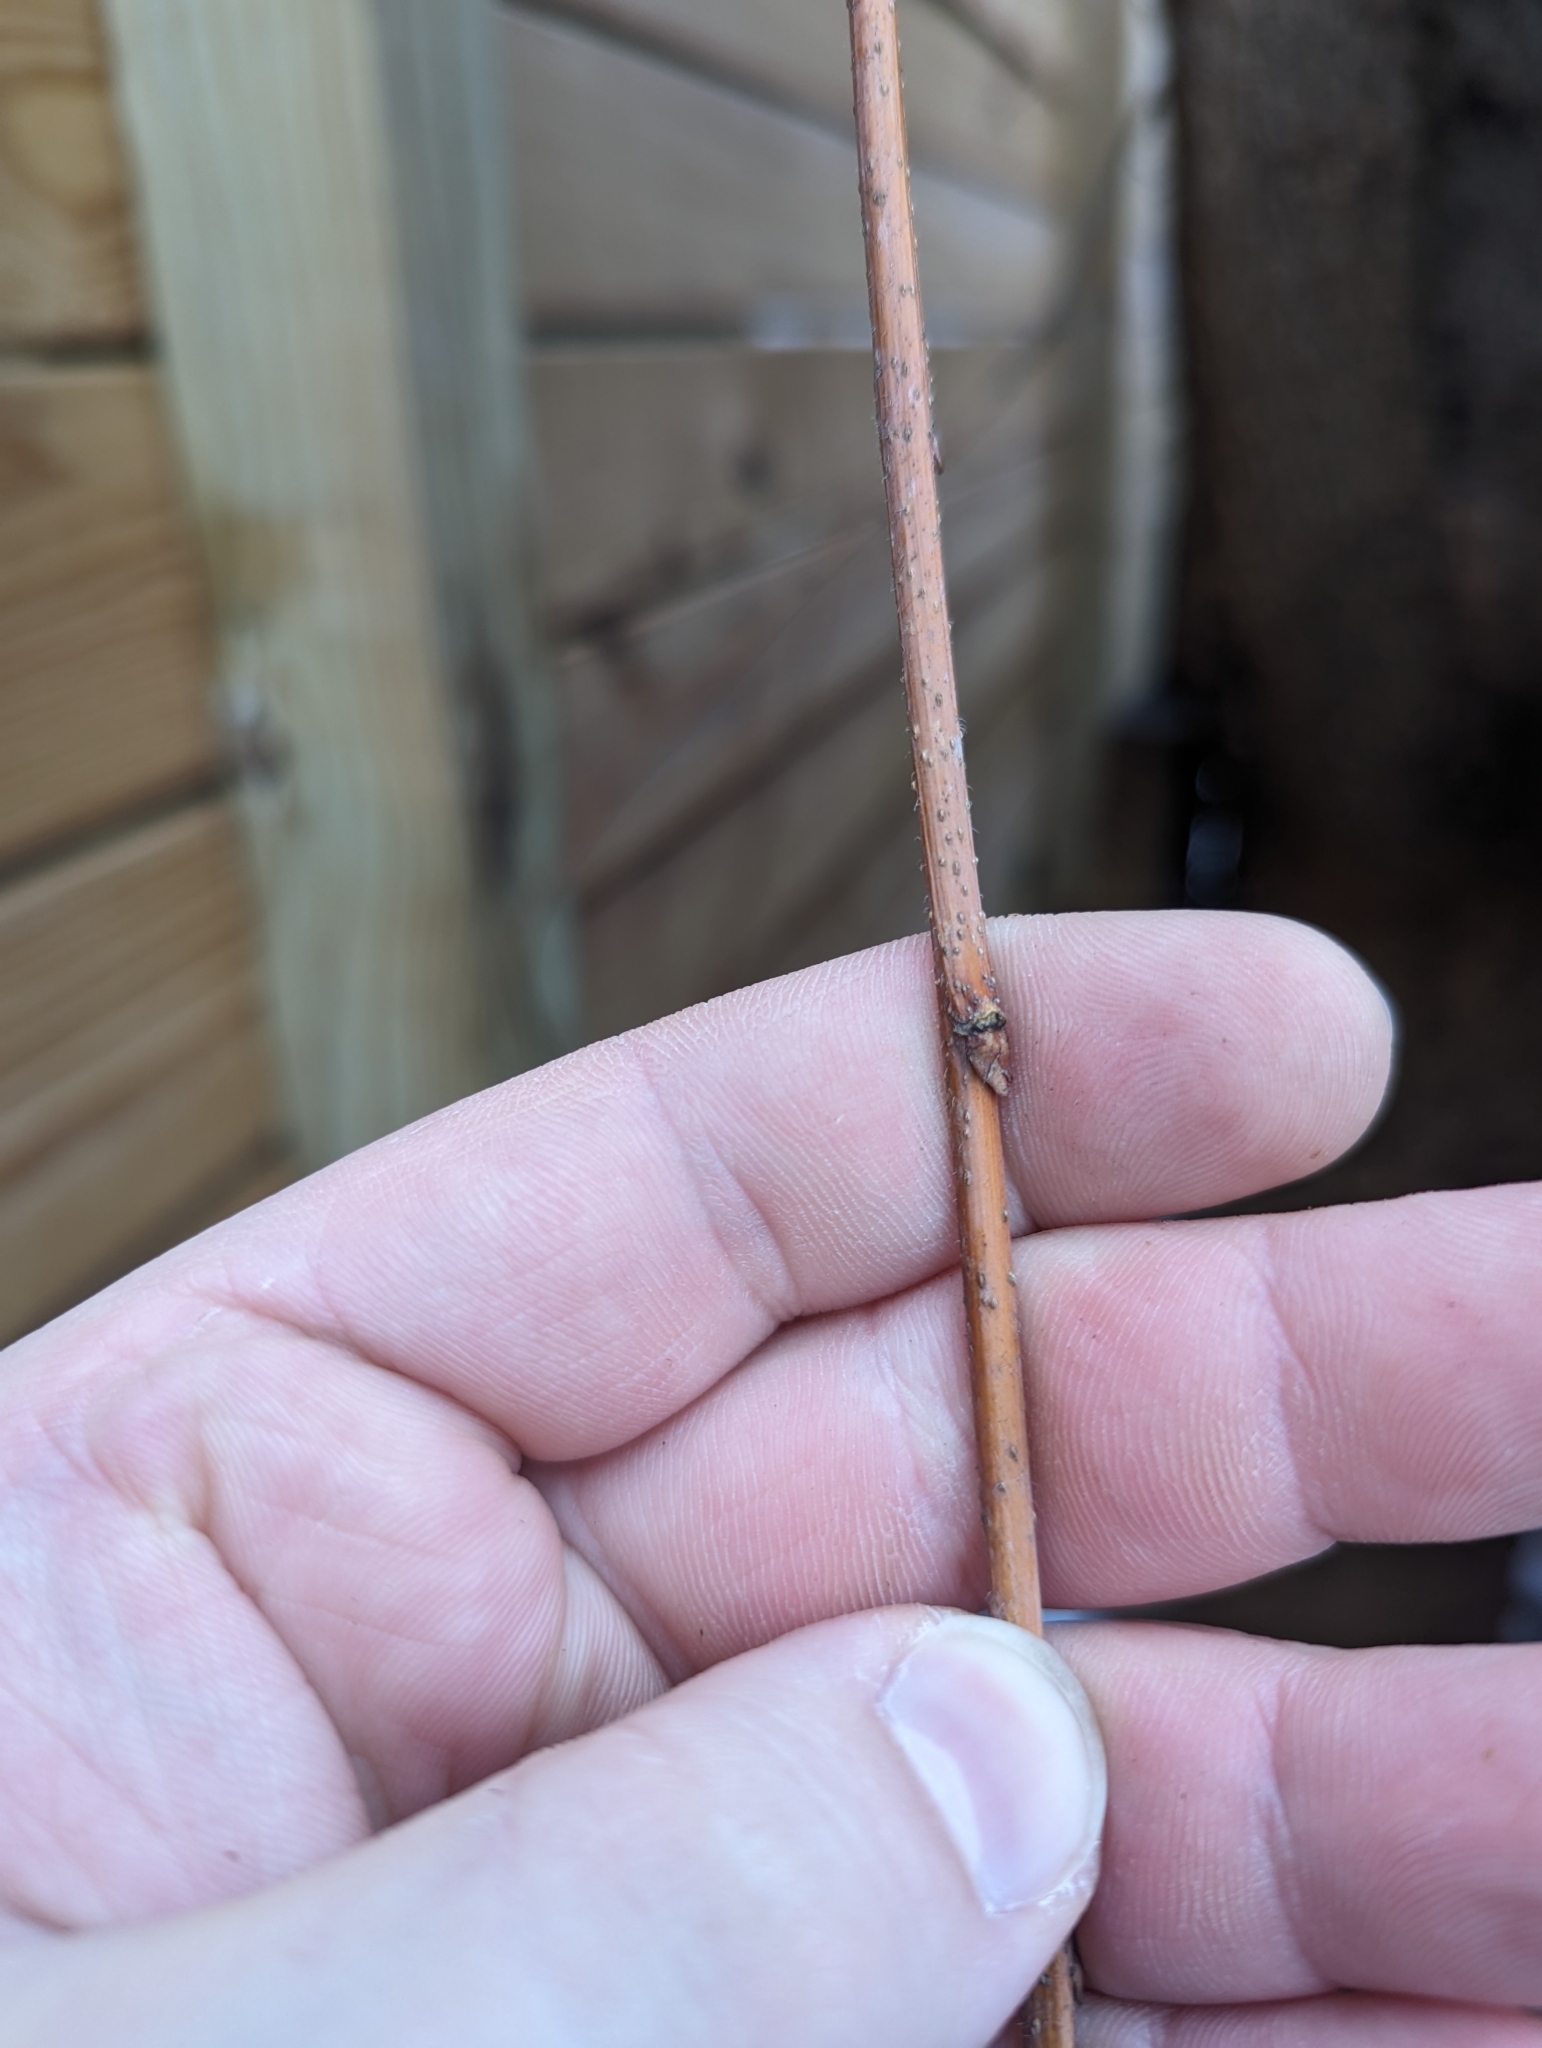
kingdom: Plantae
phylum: Tracheophyta
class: Magnoliopsida
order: Rosales
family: Cannabaceae
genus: Celtis
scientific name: Celtis occidentalis
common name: Common hackberry
